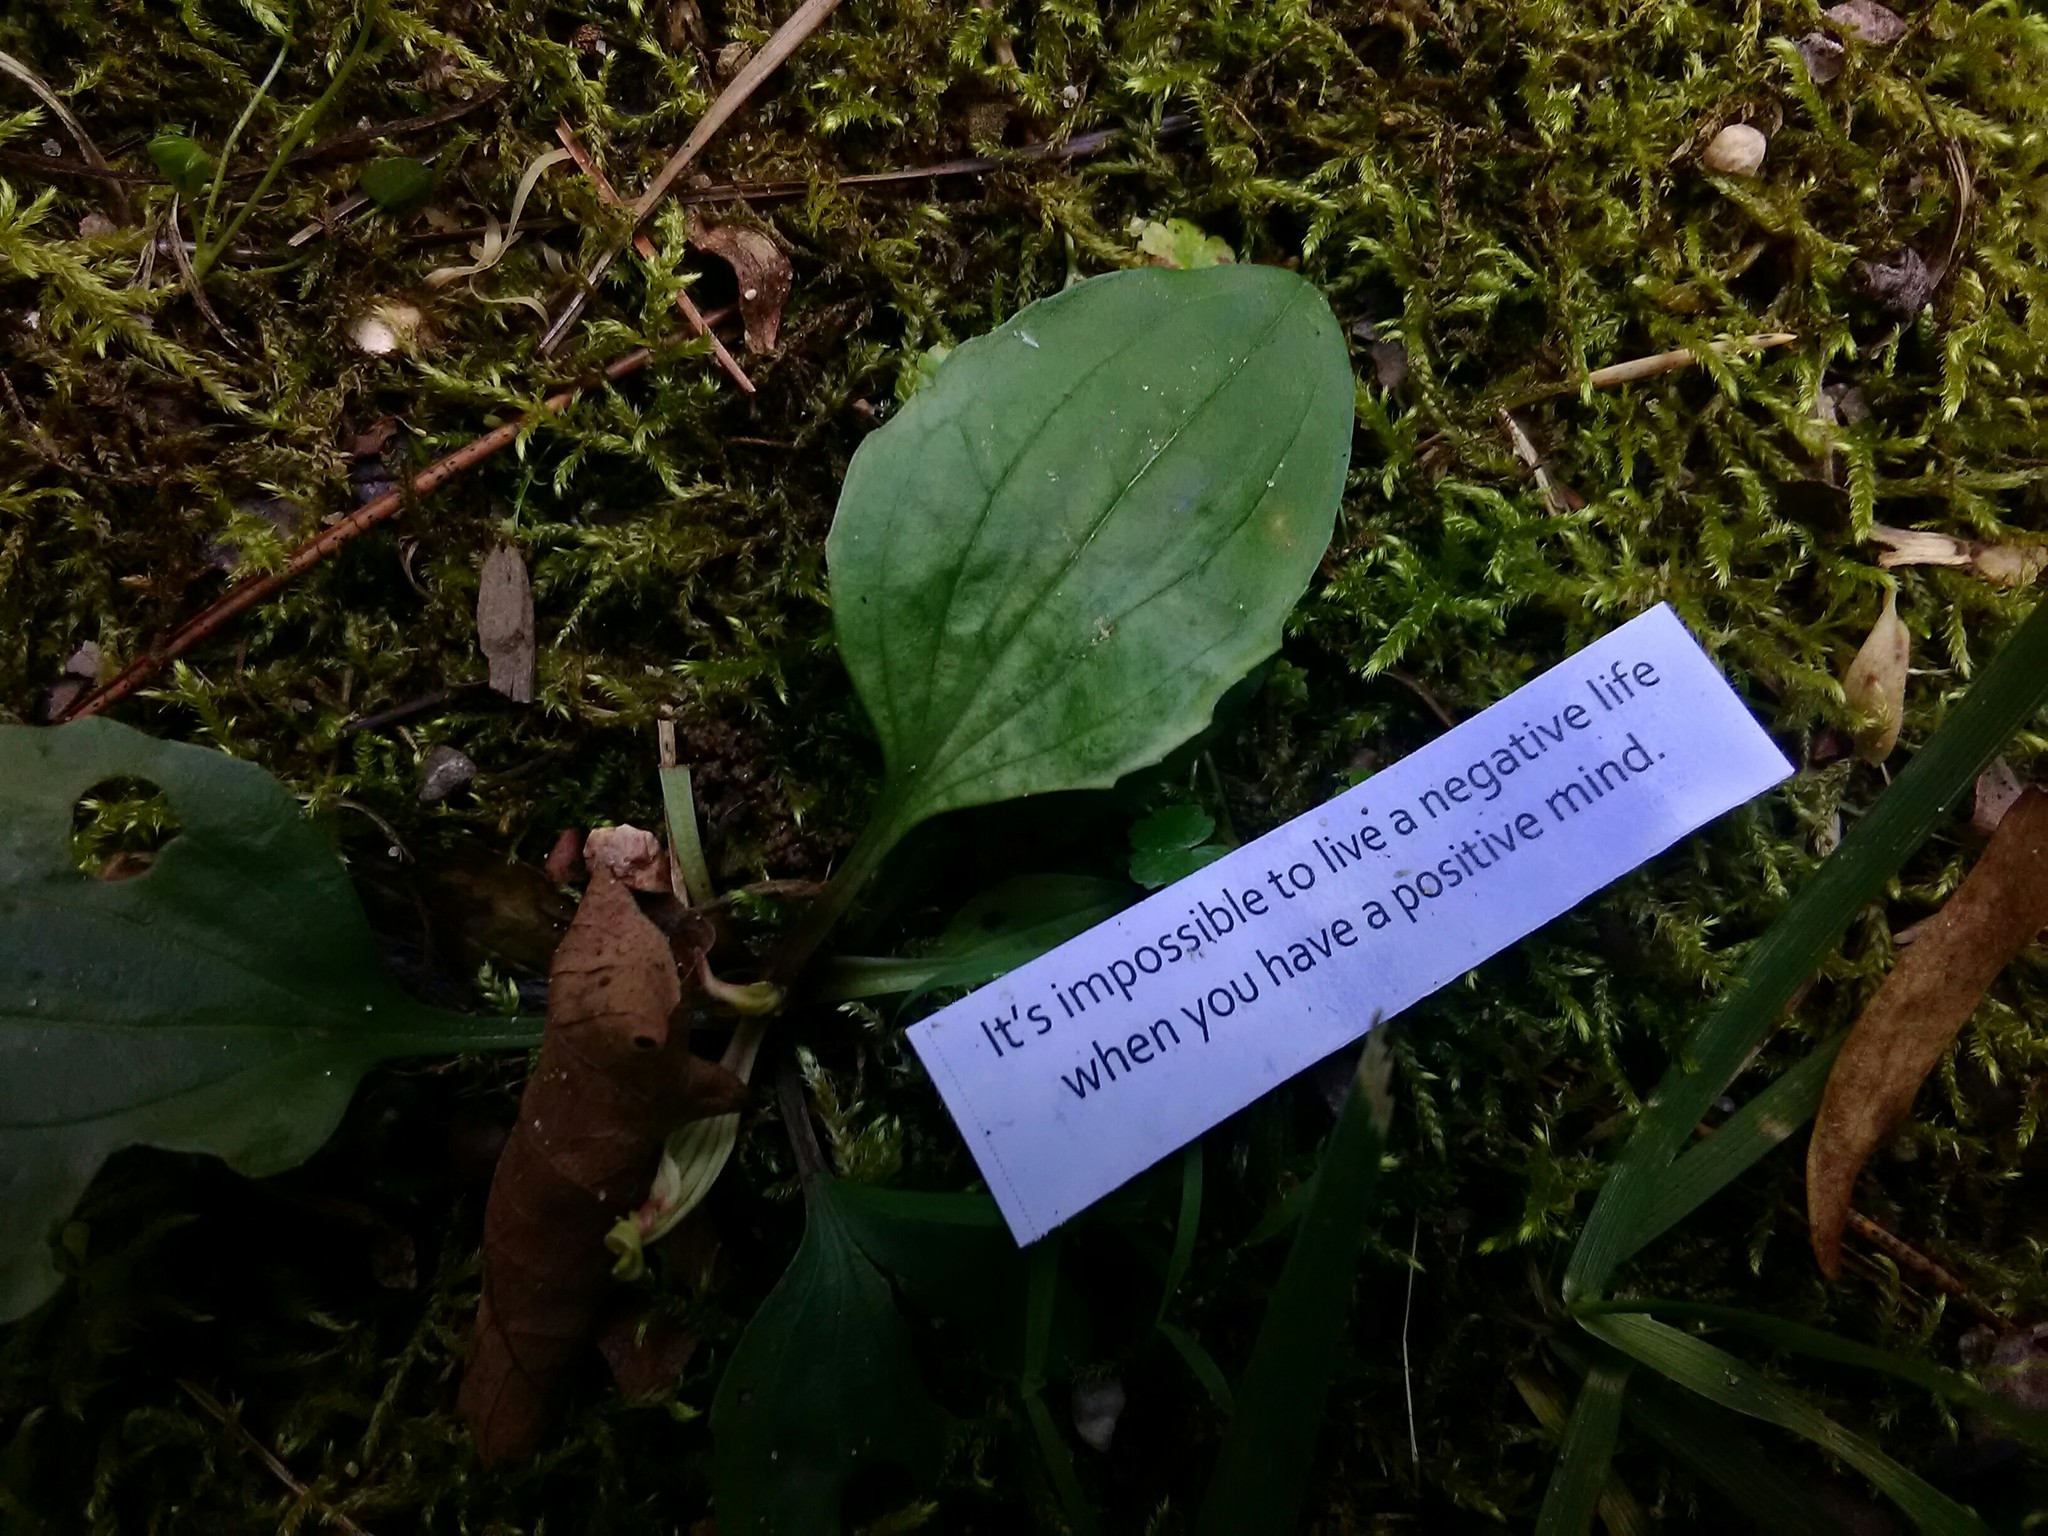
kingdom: Plantae
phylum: Tracheophyta
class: Magnoliopsida
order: Lamiales
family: Plantaginaceae
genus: Plantago
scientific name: Plantago major
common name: Common plantain
